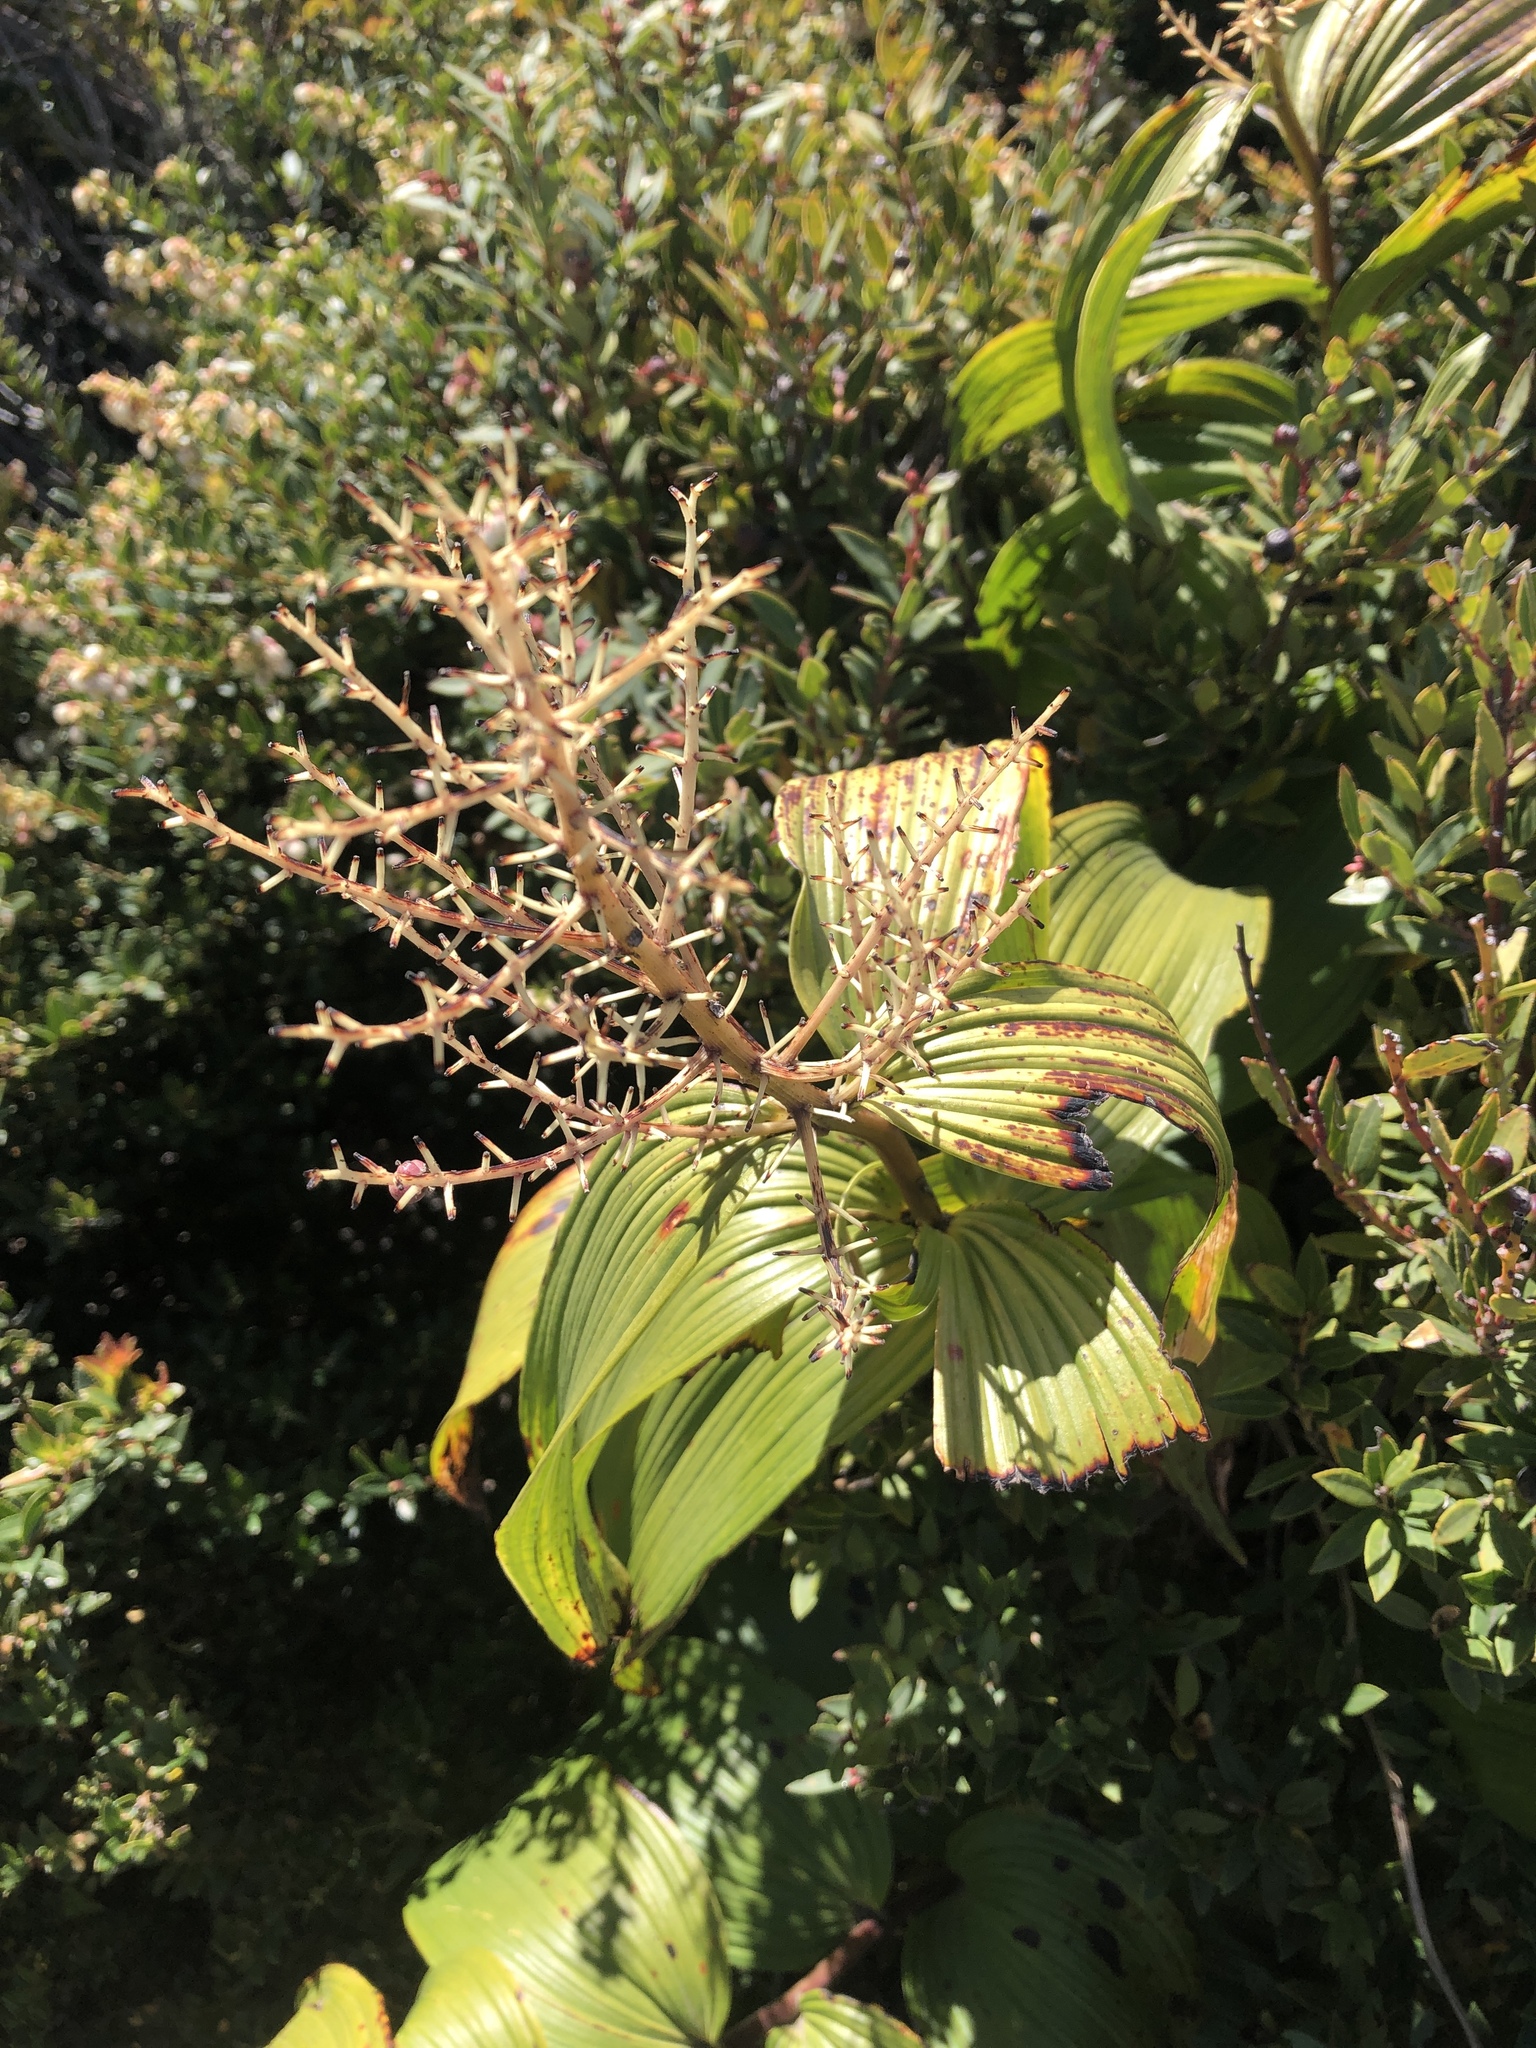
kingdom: Plantae
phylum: Tracheophyta
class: Liliopsida
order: Asparagales
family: Asparagaceae
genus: Maianthemum
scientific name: Maianthemum gigas
